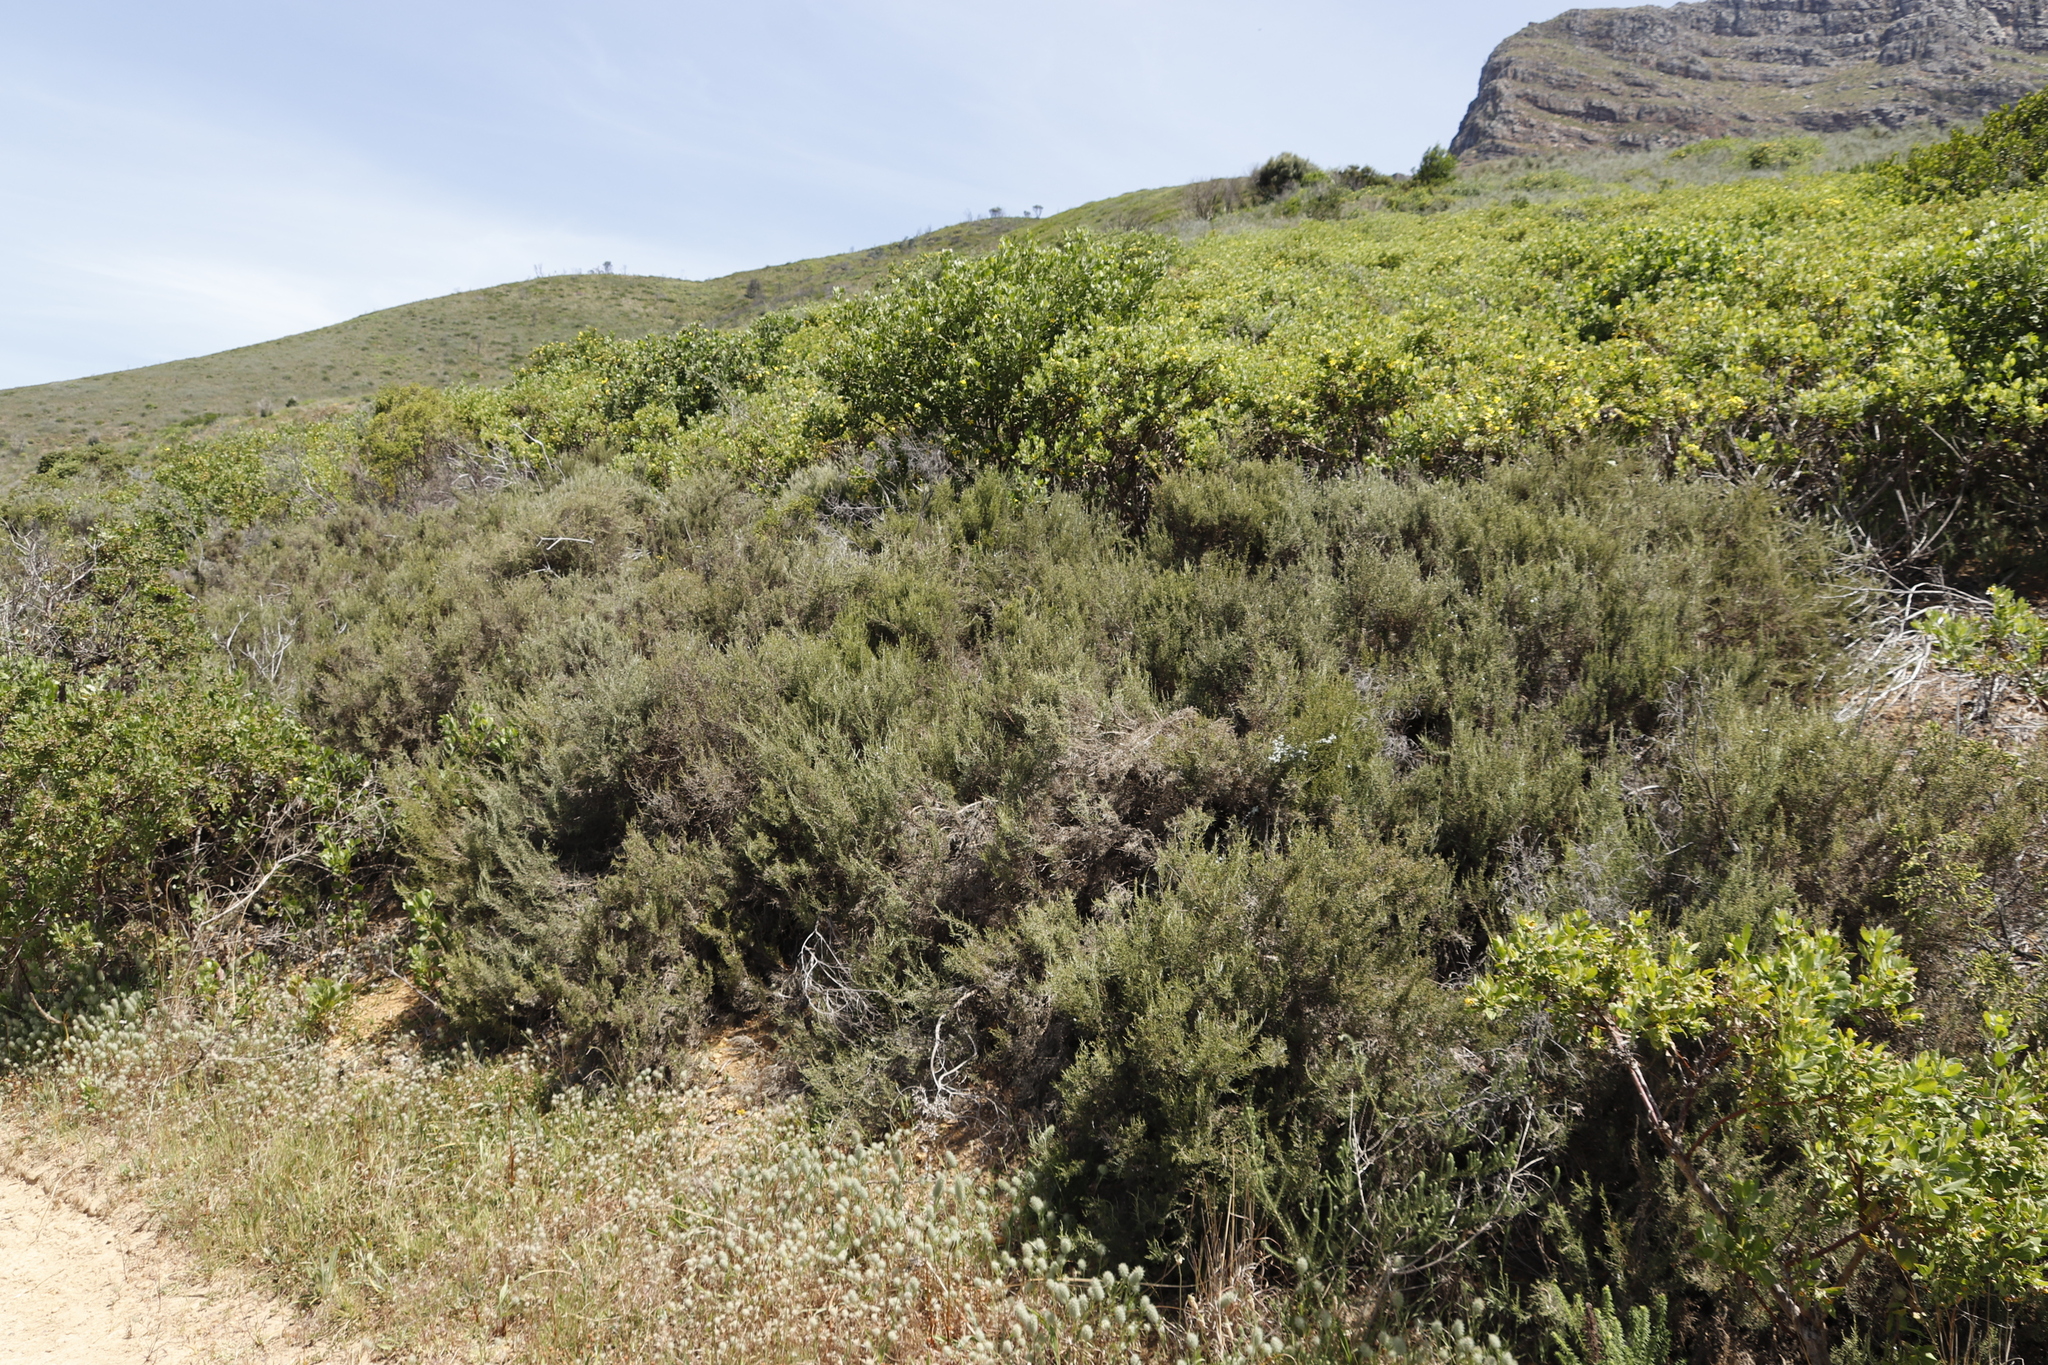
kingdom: Plantae
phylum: Tracheophyta
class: Magnoliopsida
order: Asterales
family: Asteraceae
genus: Dicerothamnus
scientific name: Dicerothamnus rhinocerotis
